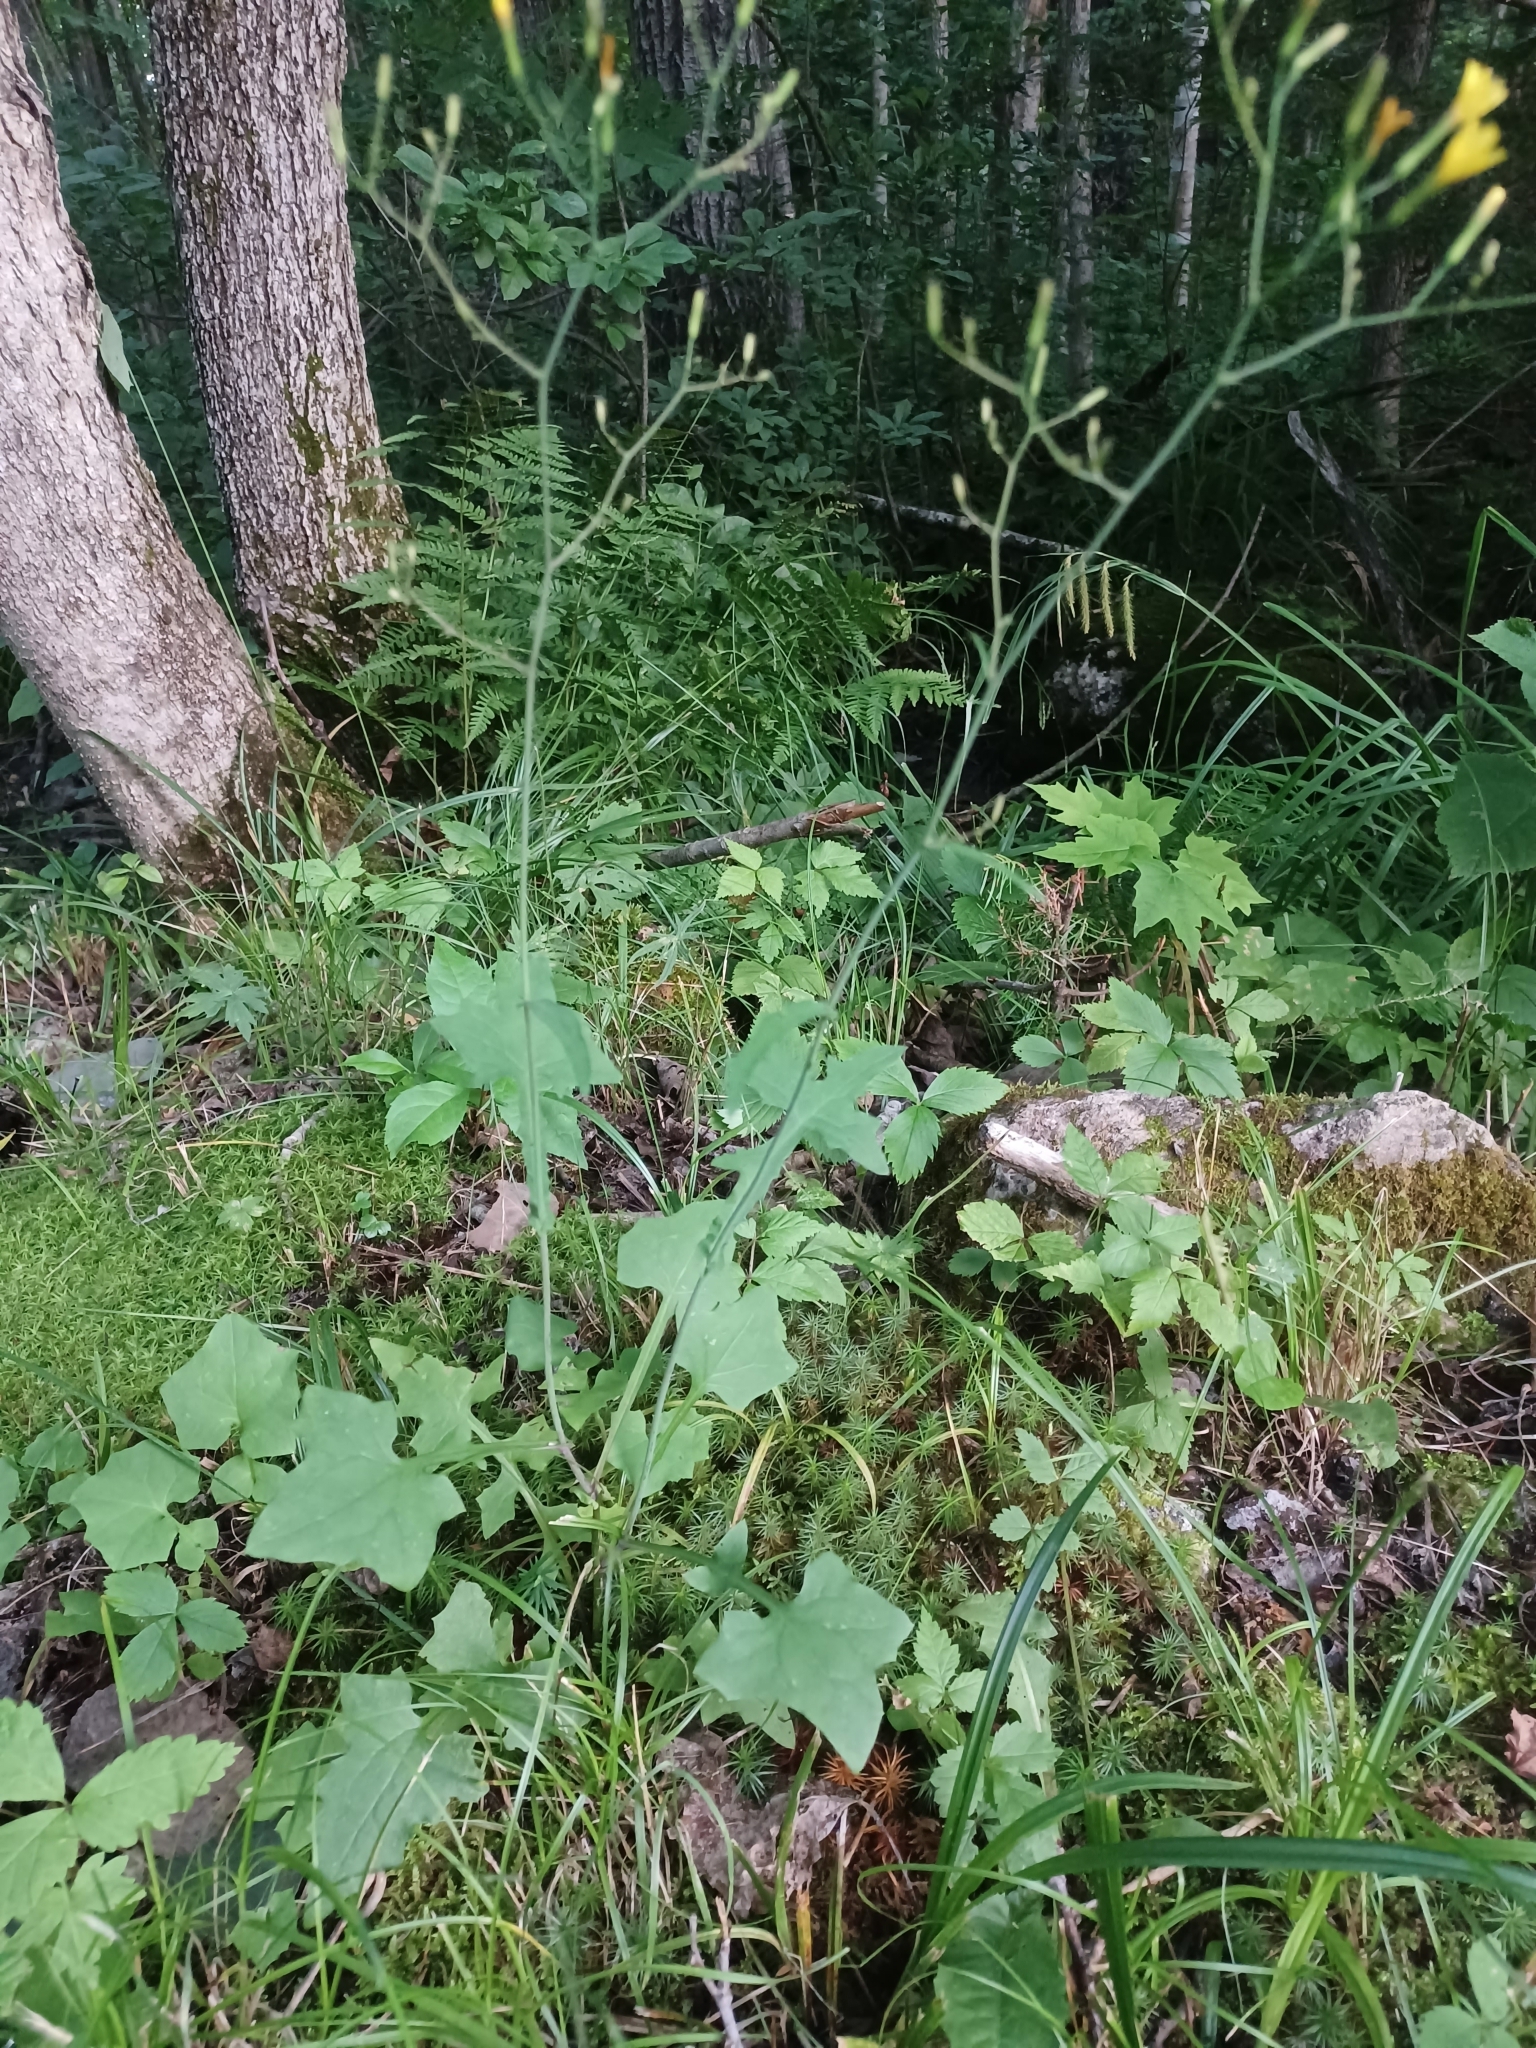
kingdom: Plantae
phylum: Tracheophyta
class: Magnoliopsida
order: Asterales
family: Asteraceae
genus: Mycelis
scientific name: Mycelis muralis
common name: Wall lettuce
